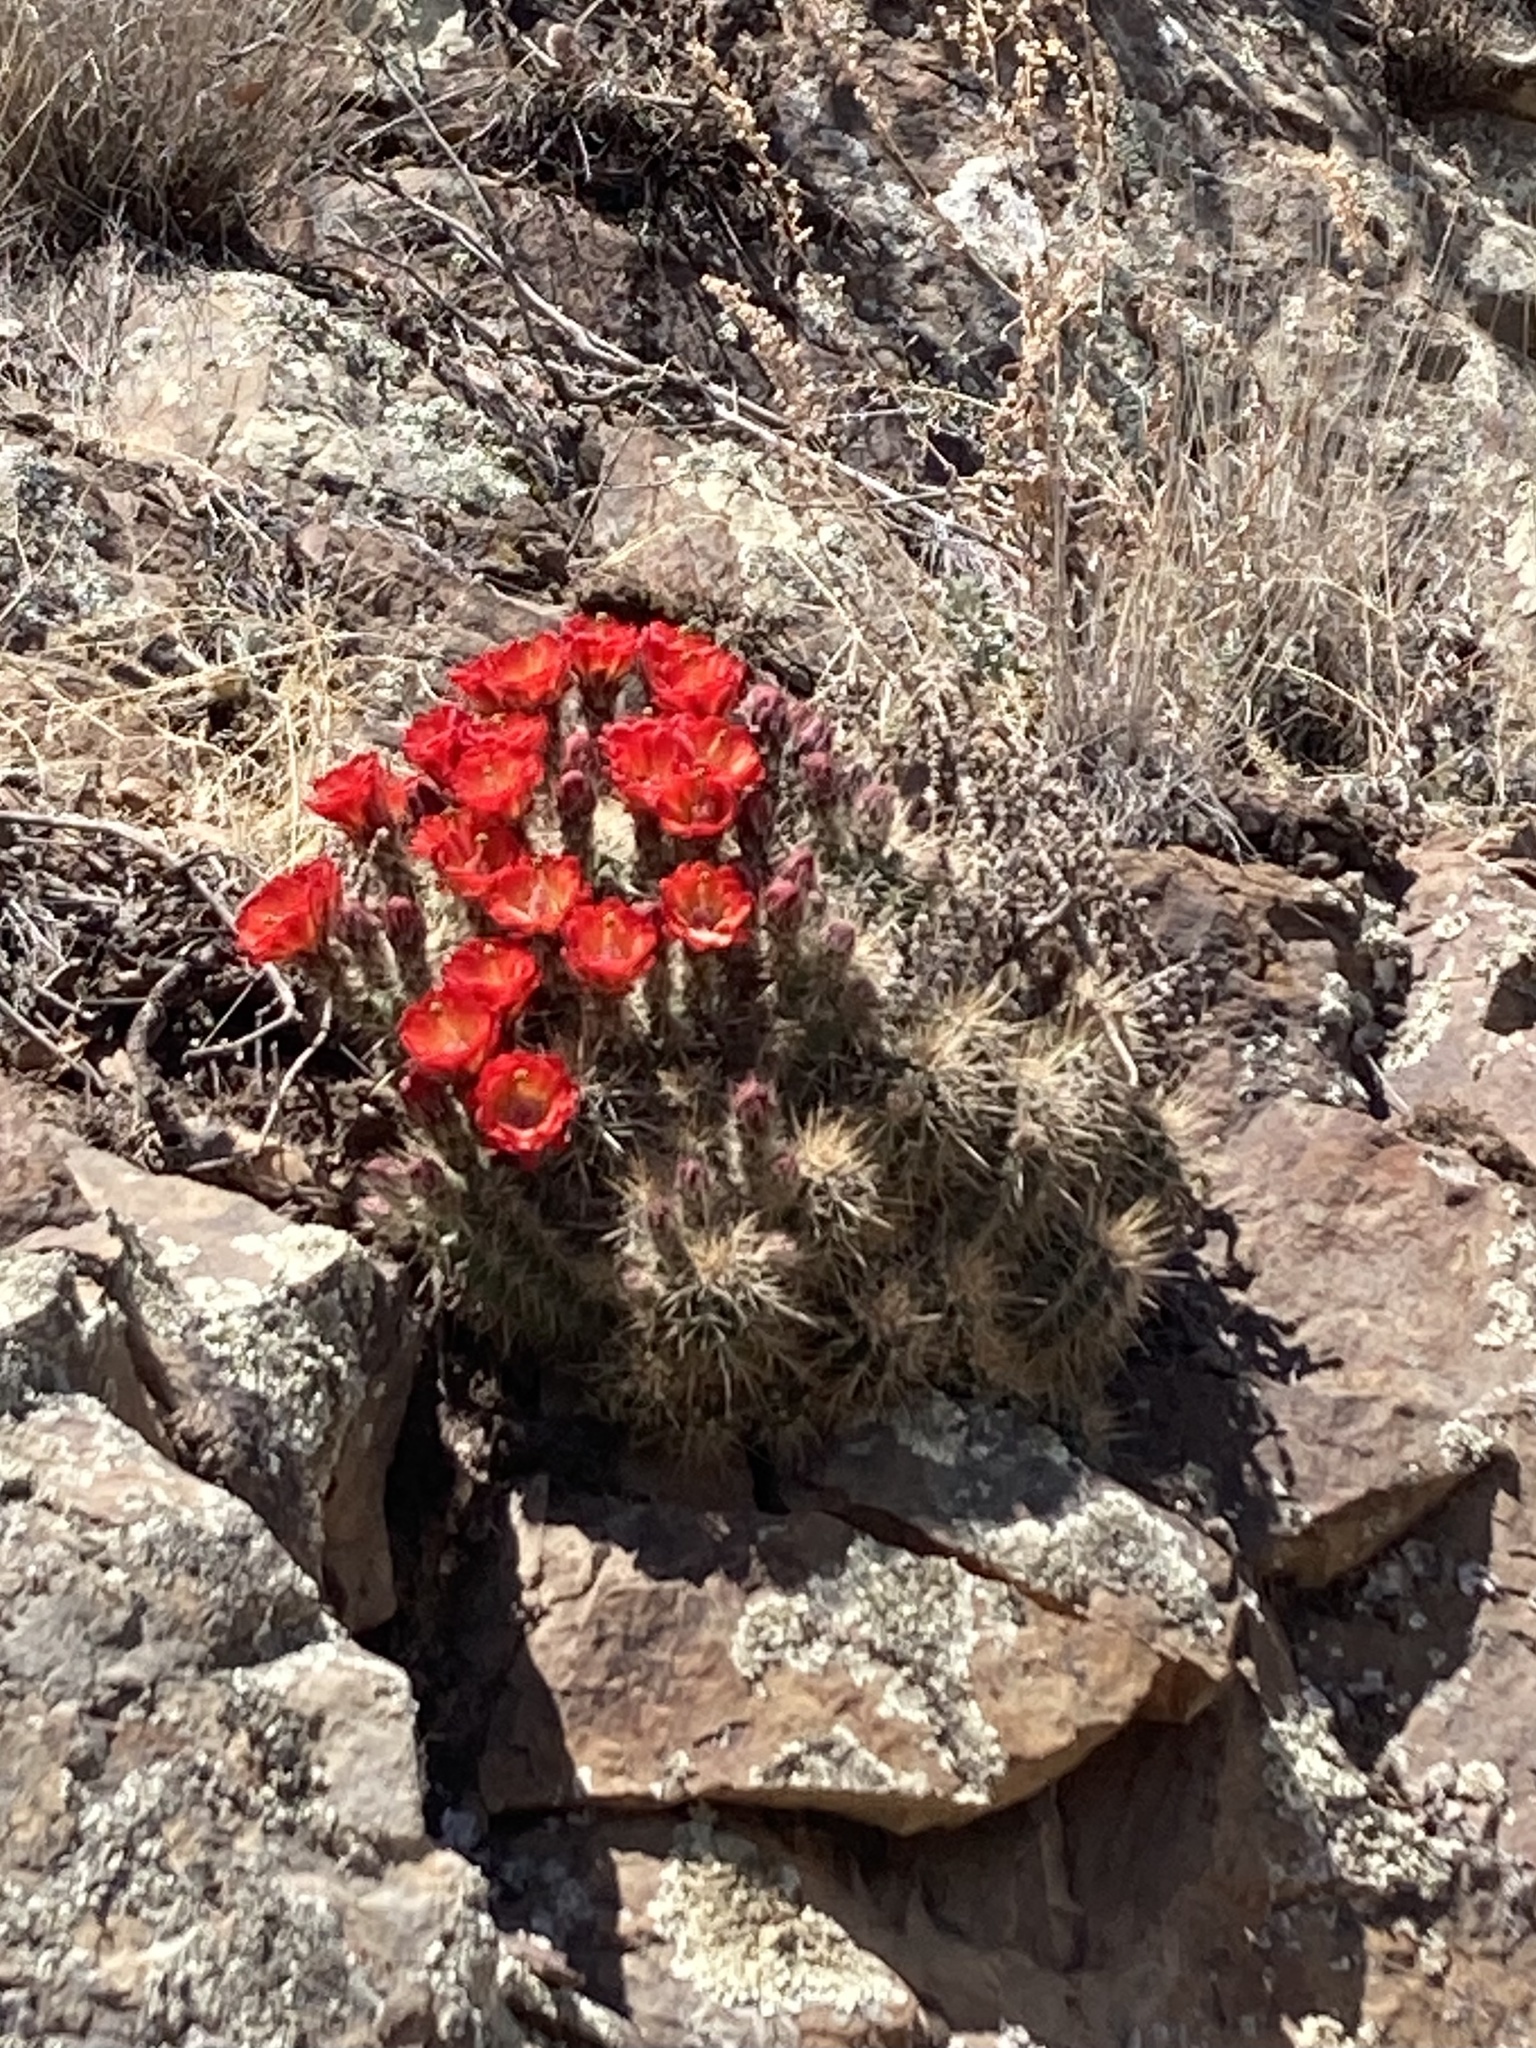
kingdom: Plantae
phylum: Tracheophyta
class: Magnoliopsida
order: Caryophyllales
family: Cactaceae
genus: Echinocereus
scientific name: Echinocereus coccineus
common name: Scarlet hedgehog cactus
